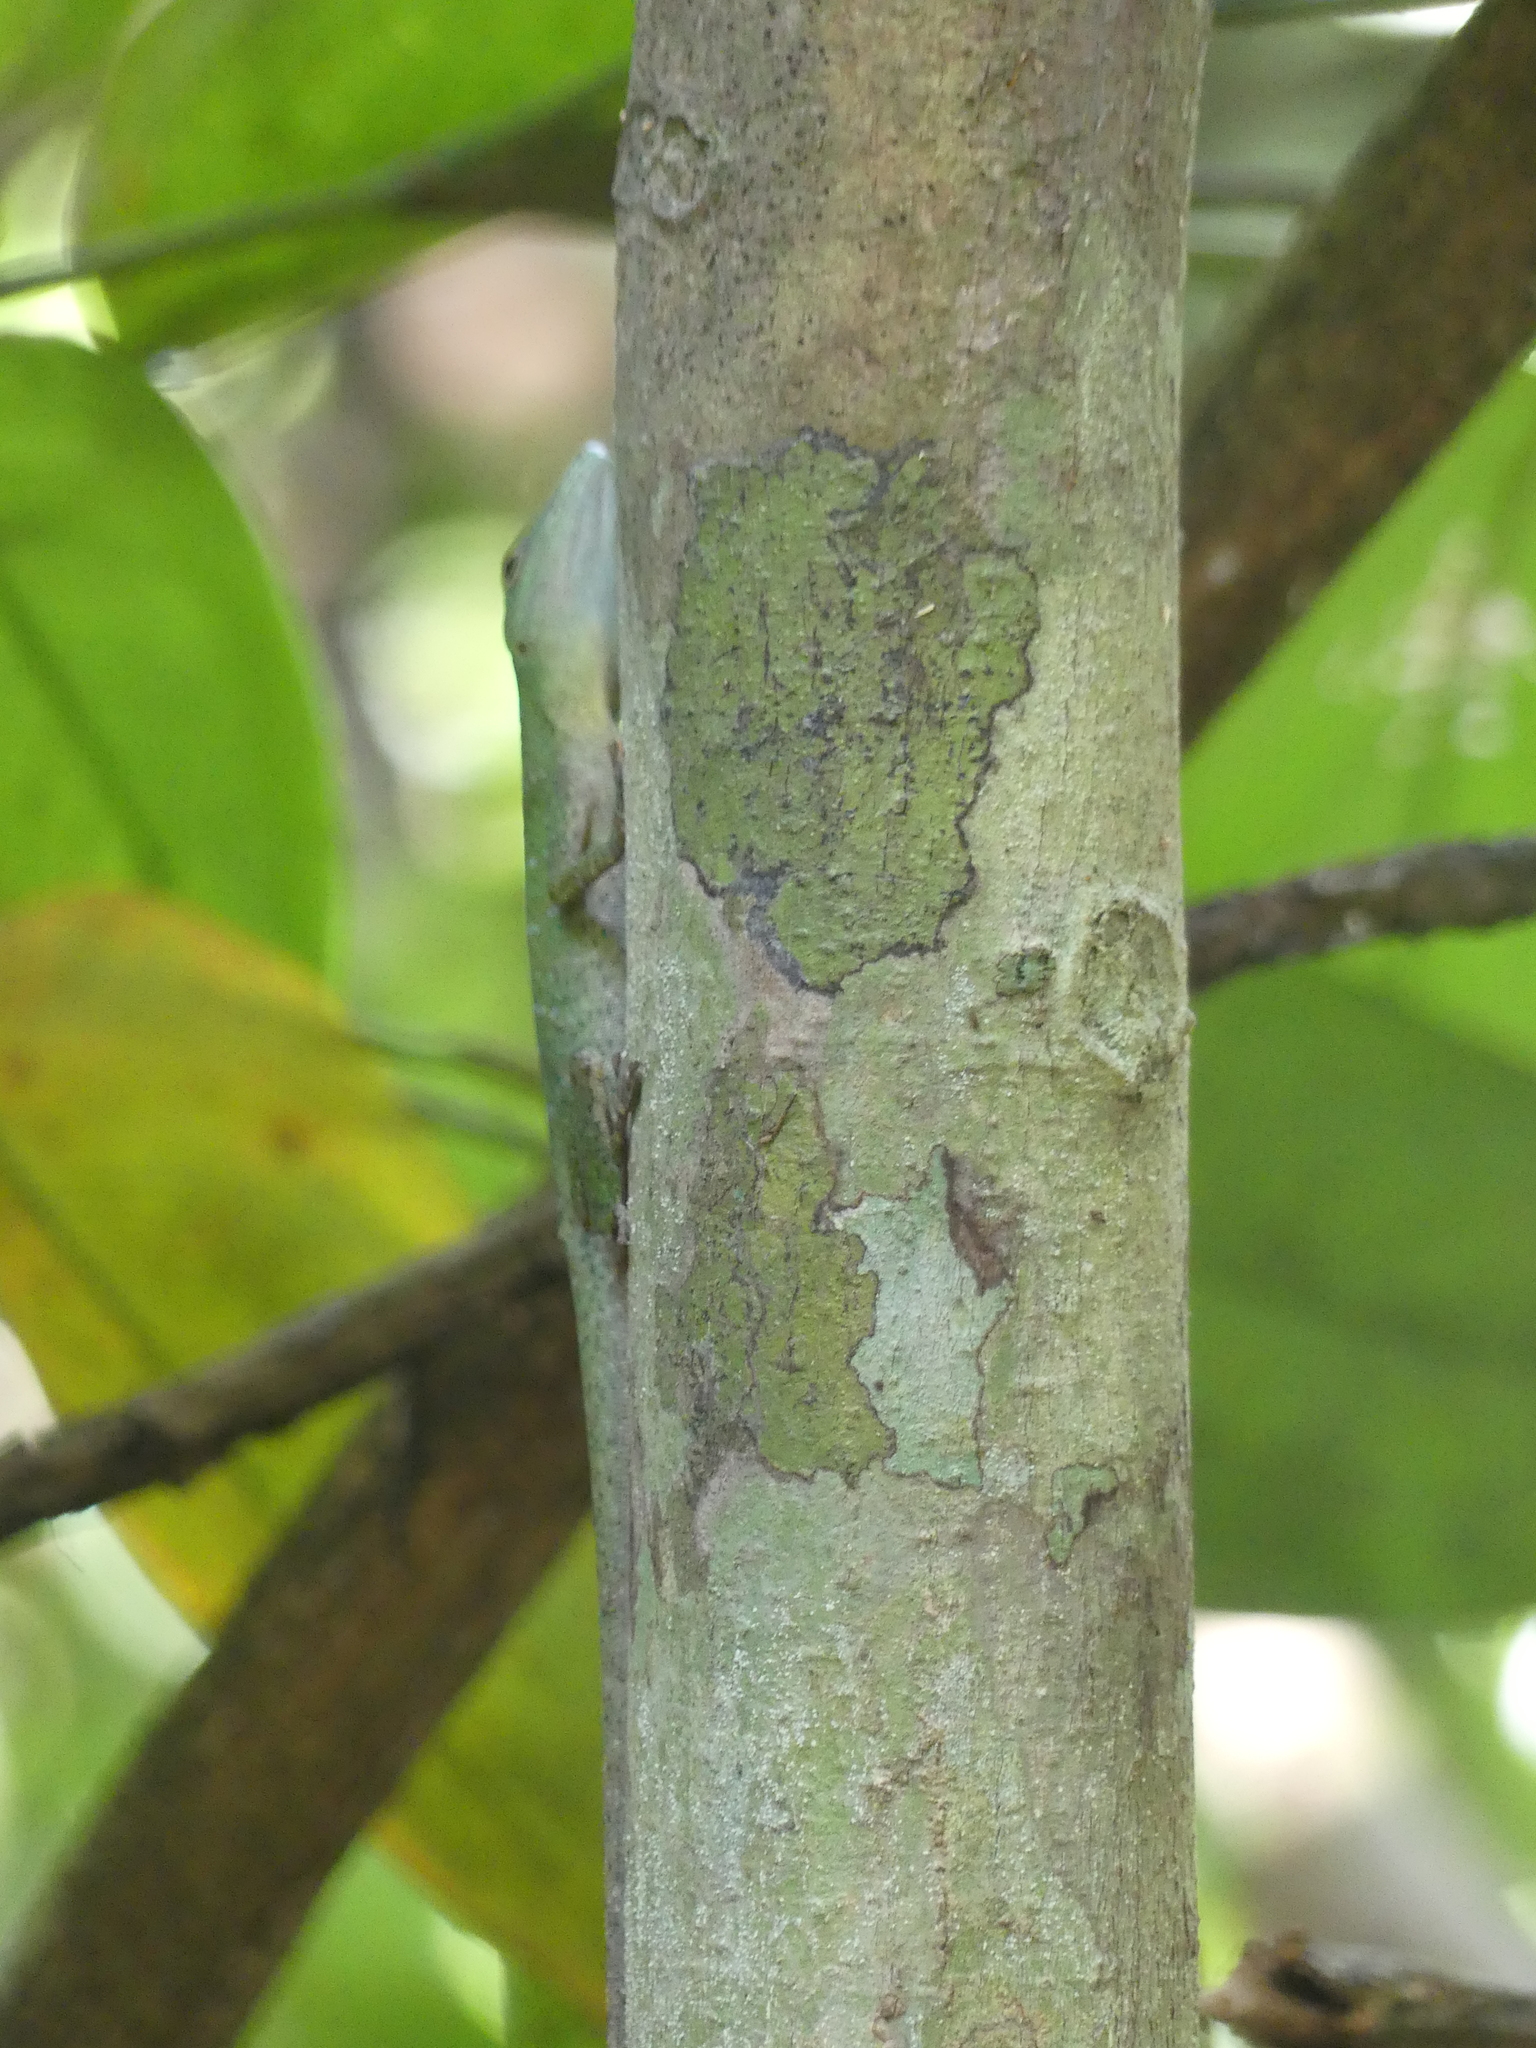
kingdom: Animalia
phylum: Chordata
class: Squamata
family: Dactyloidae
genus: Anolis
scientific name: Anolis punctatus
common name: Amazon green anole
